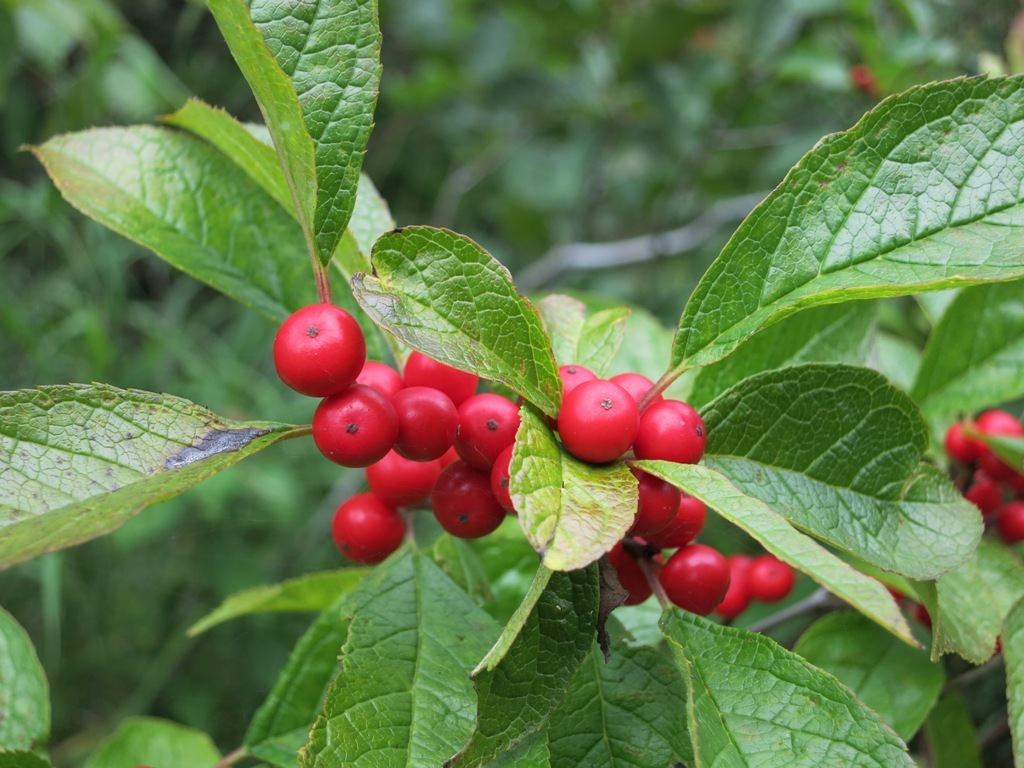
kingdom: Plantae
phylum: Tracheophyta
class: Magnoliopsida
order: Aquifoliales
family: Aquifoliaceae
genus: Ilex
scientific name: Ilex verticillata
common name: Virginia winterberry
